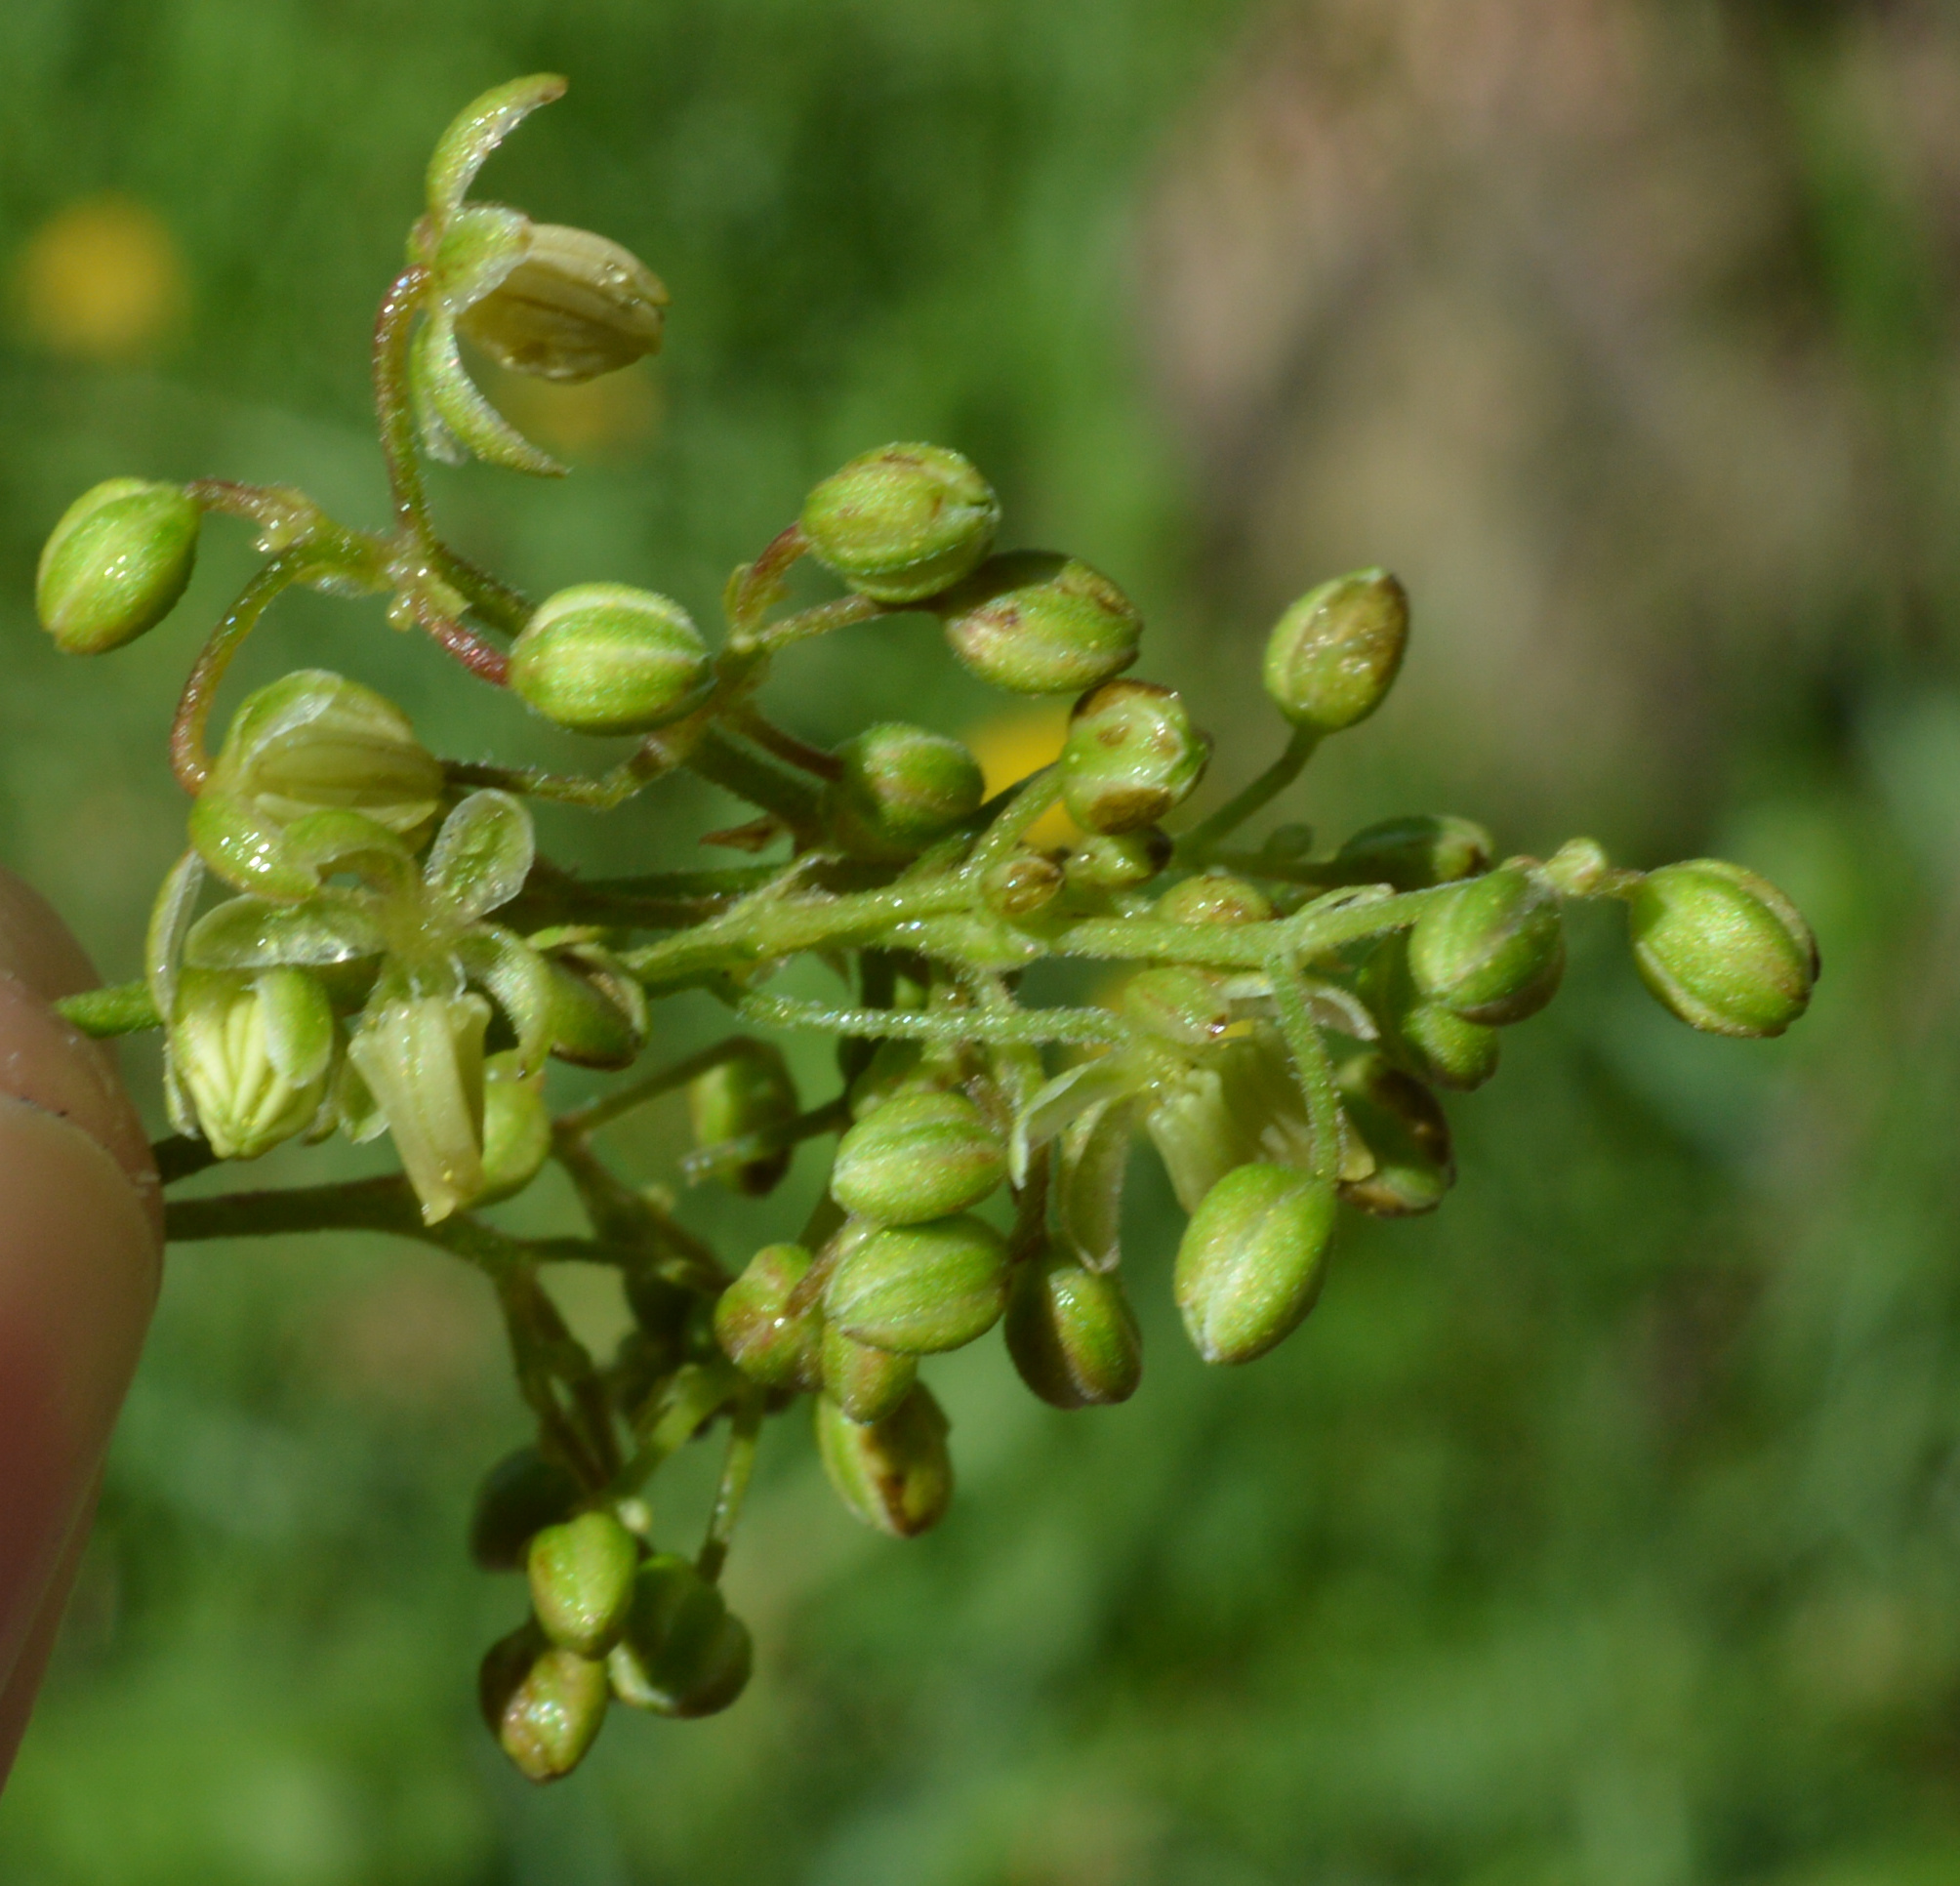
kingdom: Plantae
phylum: Tracheophyta
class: Magnoliopsida
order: Rosales
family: Cannabaceae
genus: Humulus
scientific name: Humulus lupulus
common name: Hop
